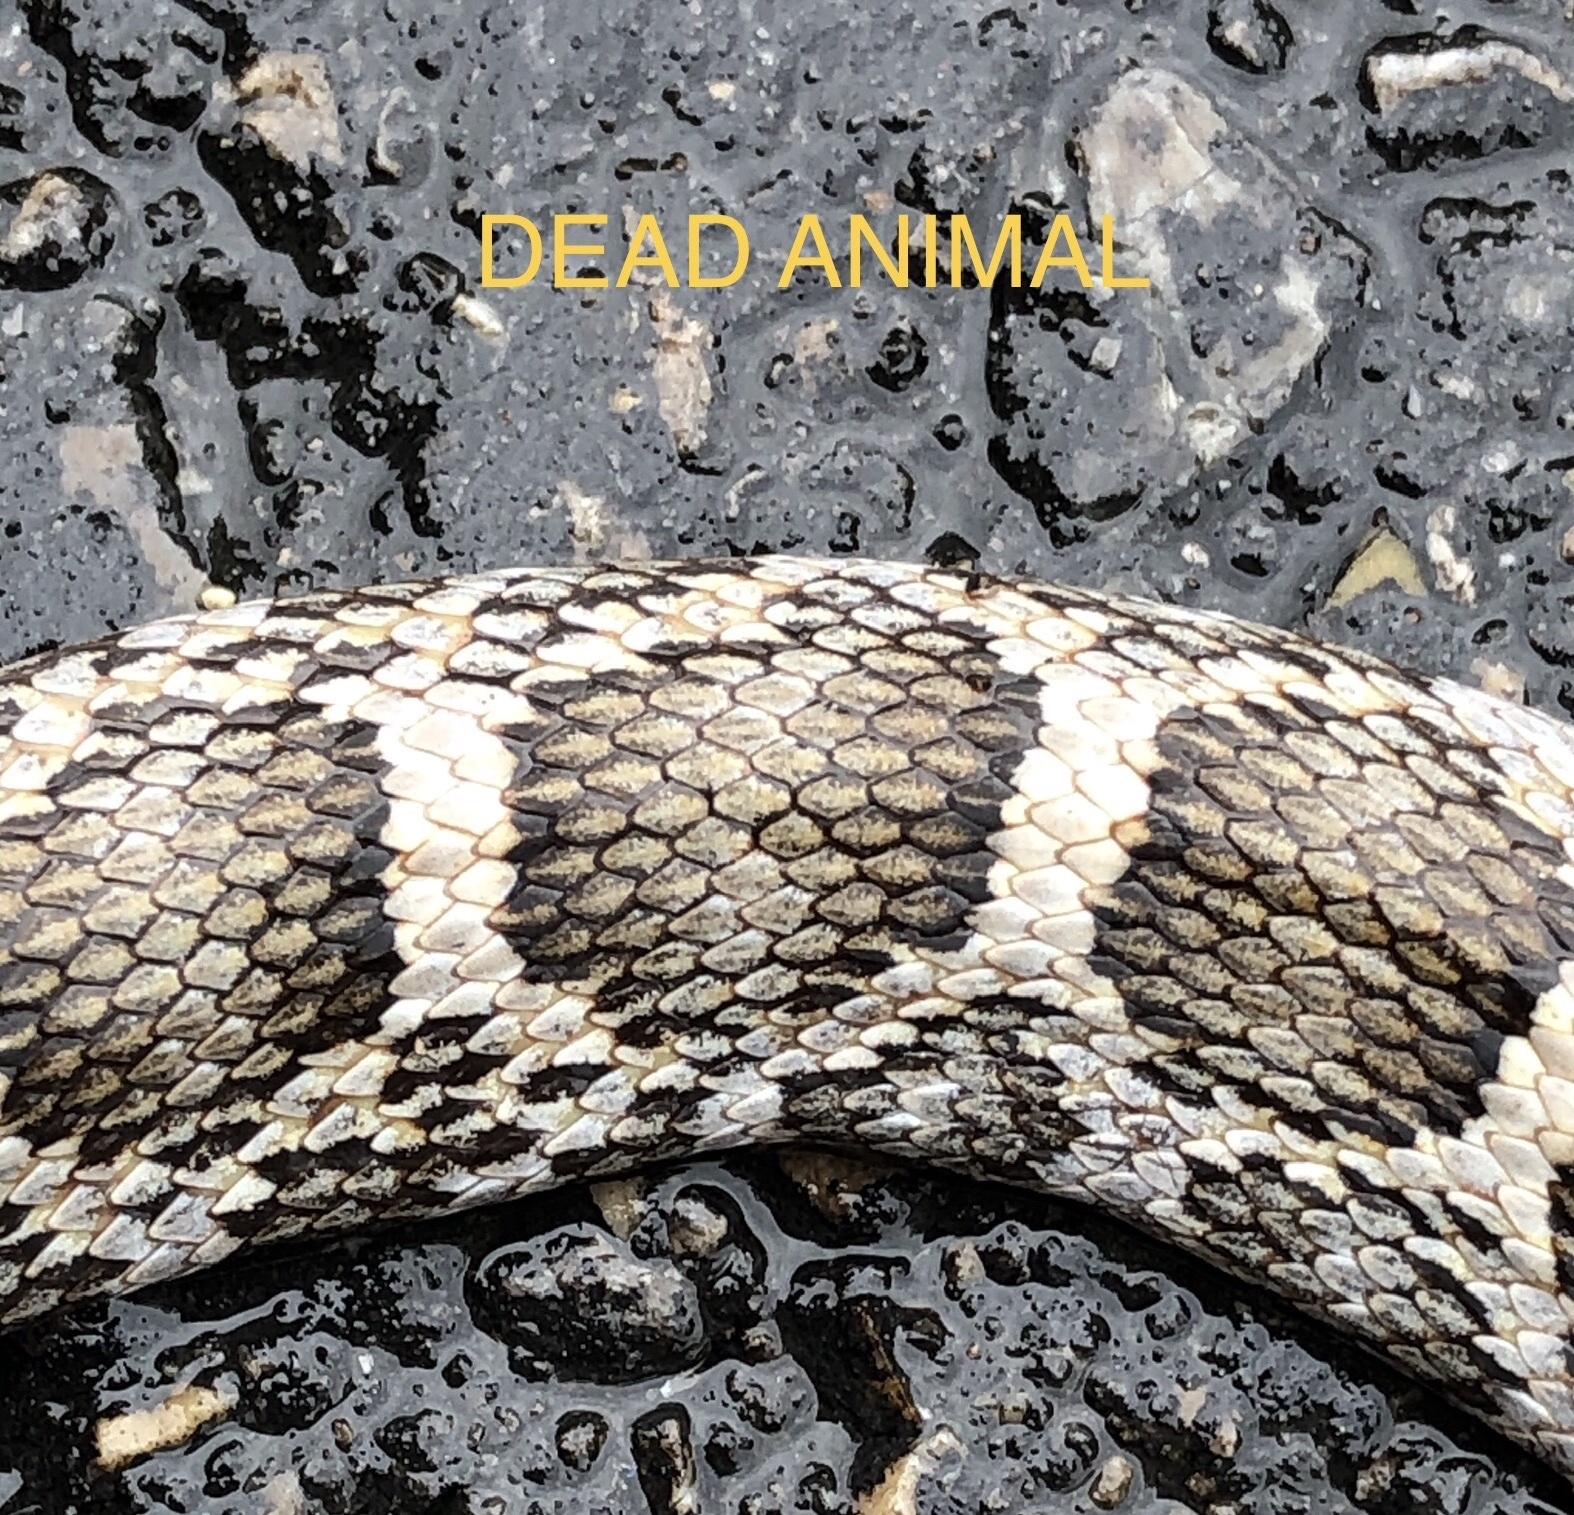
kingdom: Animalia
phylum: Chordata
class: Squamata
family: Colubridae
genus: Pantherophis
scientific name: Pantherophis emoryi
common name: Great plains rat snake
